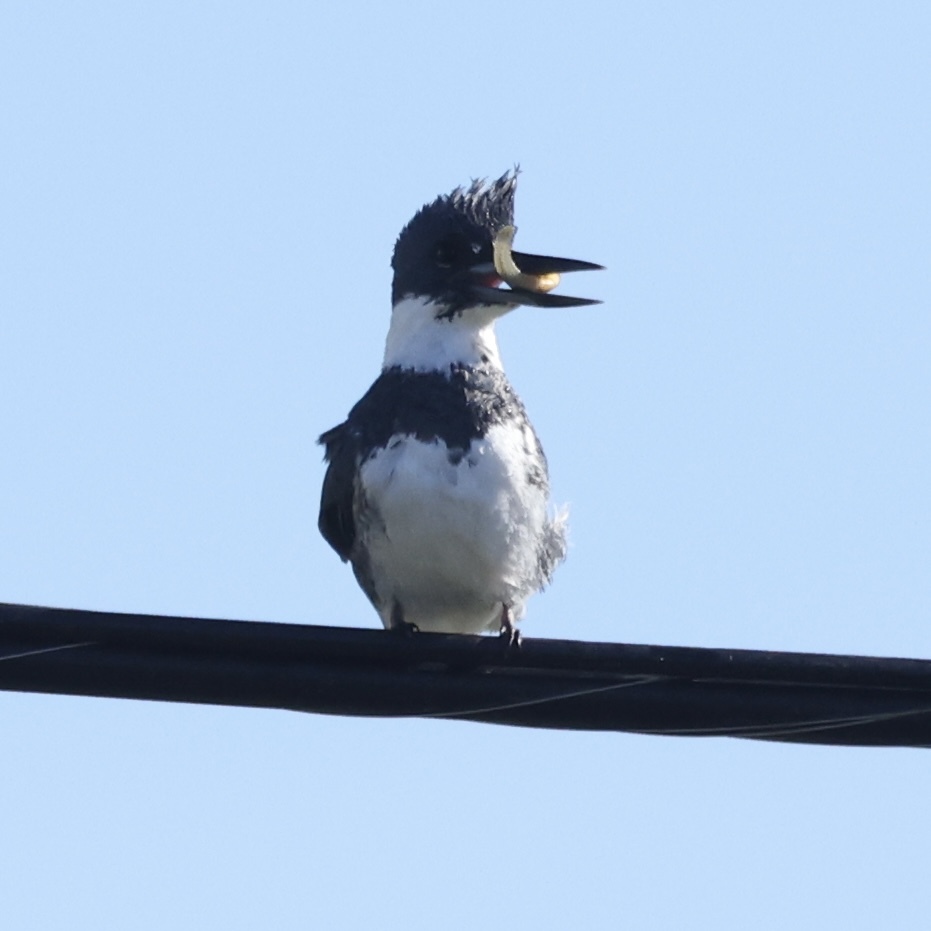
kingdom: Animalia
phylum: Chordata
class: Aves
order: Coraciiformes
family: Alcedinidae
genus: Megaceryle
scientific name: Megaceryle alcyon
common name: Belted kingfisher
